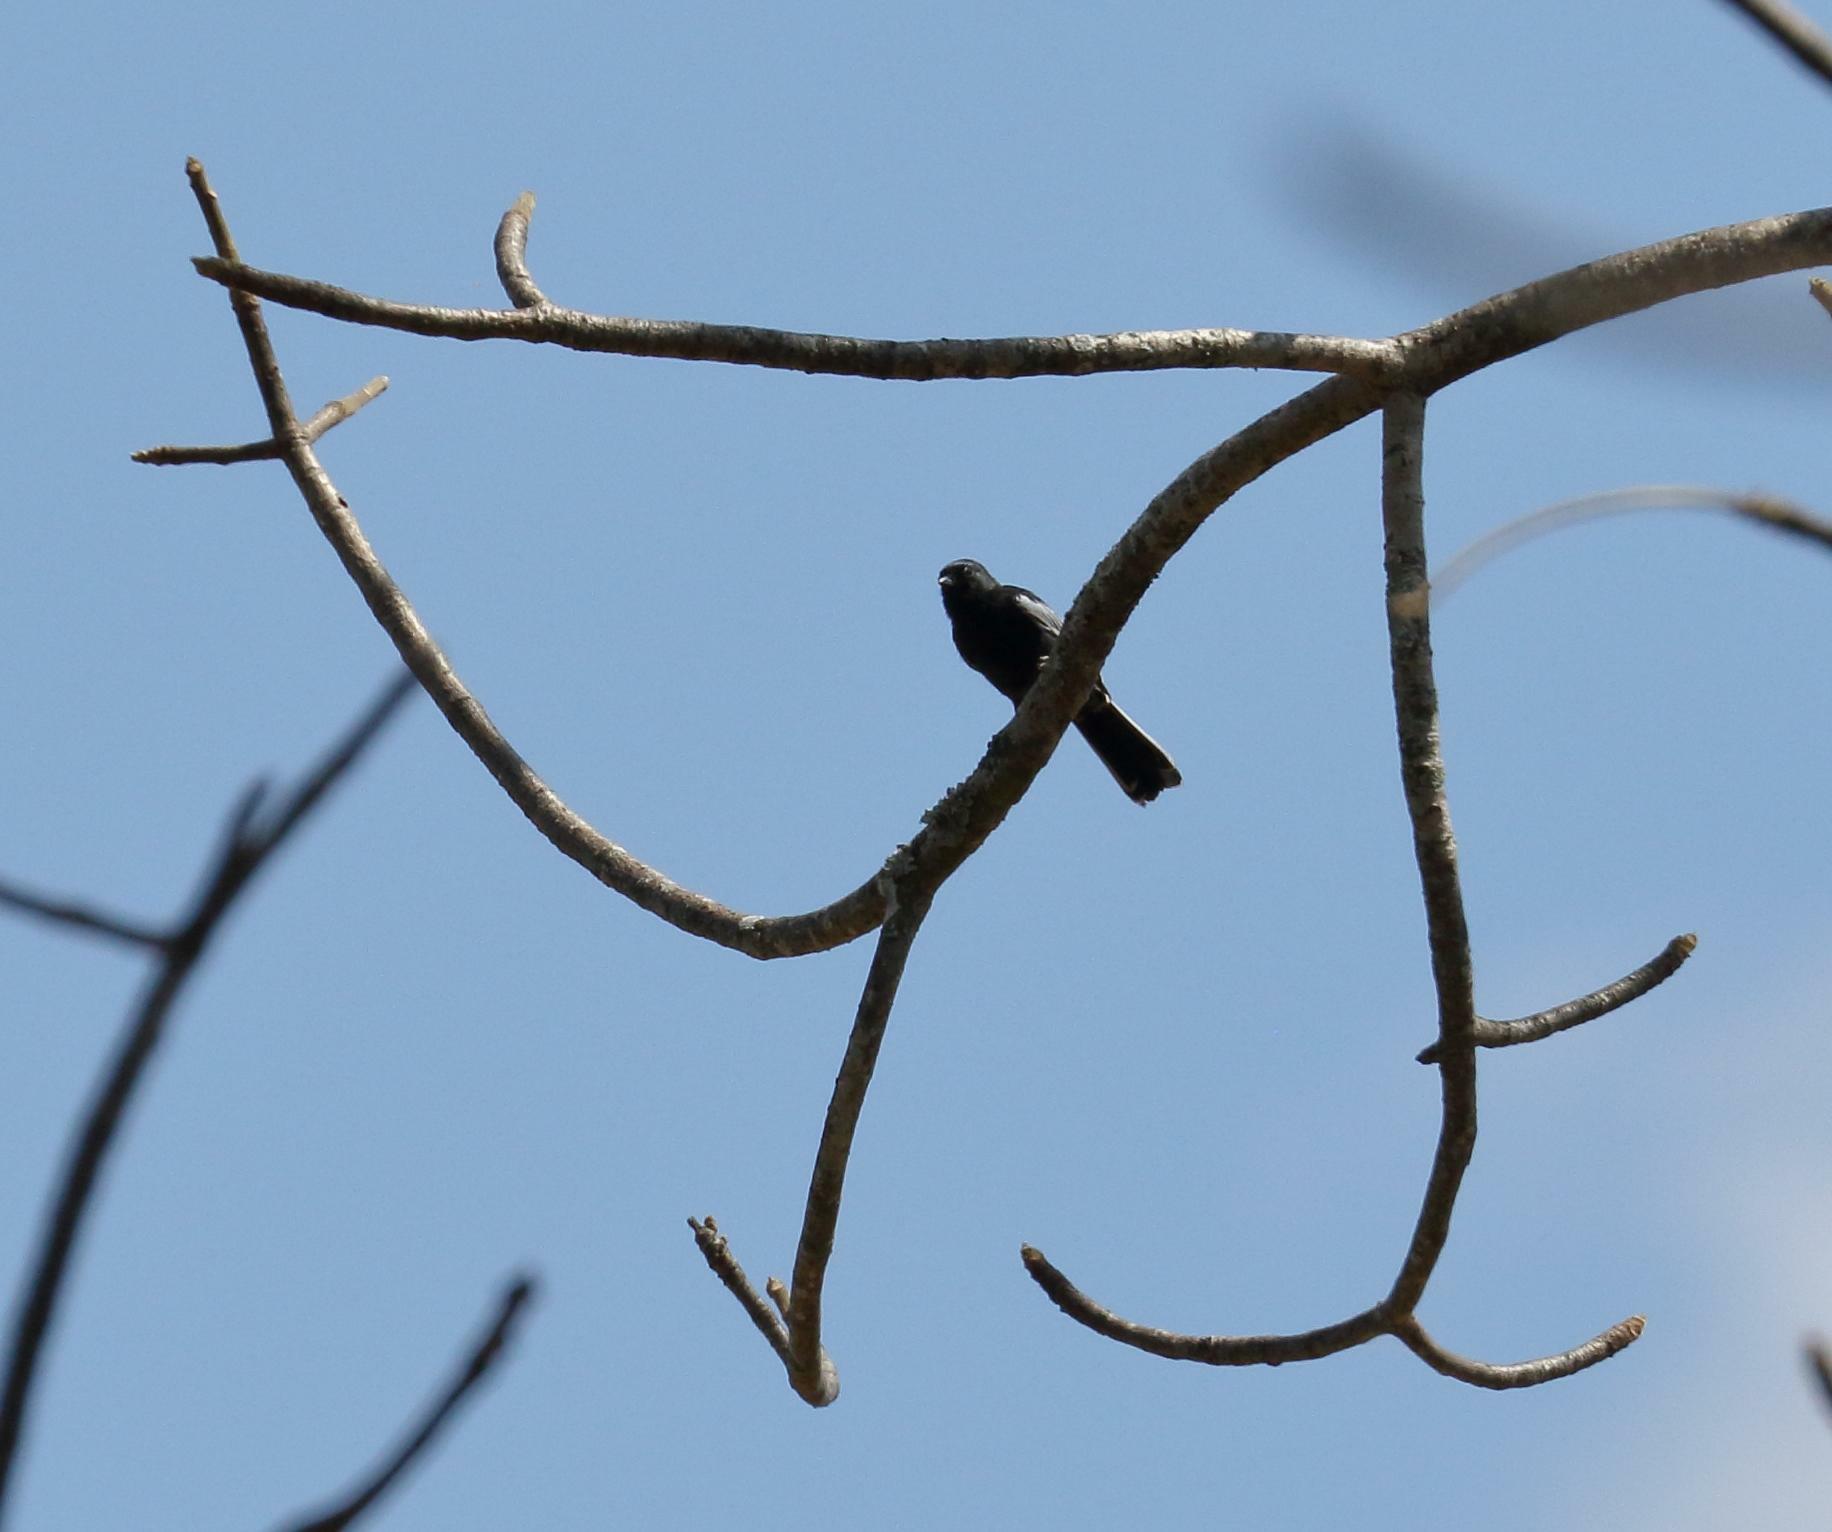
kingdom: Animalia
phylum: Chordata
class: Aves
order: Passeriformes
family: Paridae
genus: Parus
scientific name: Parus niger
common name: Southern black tit
